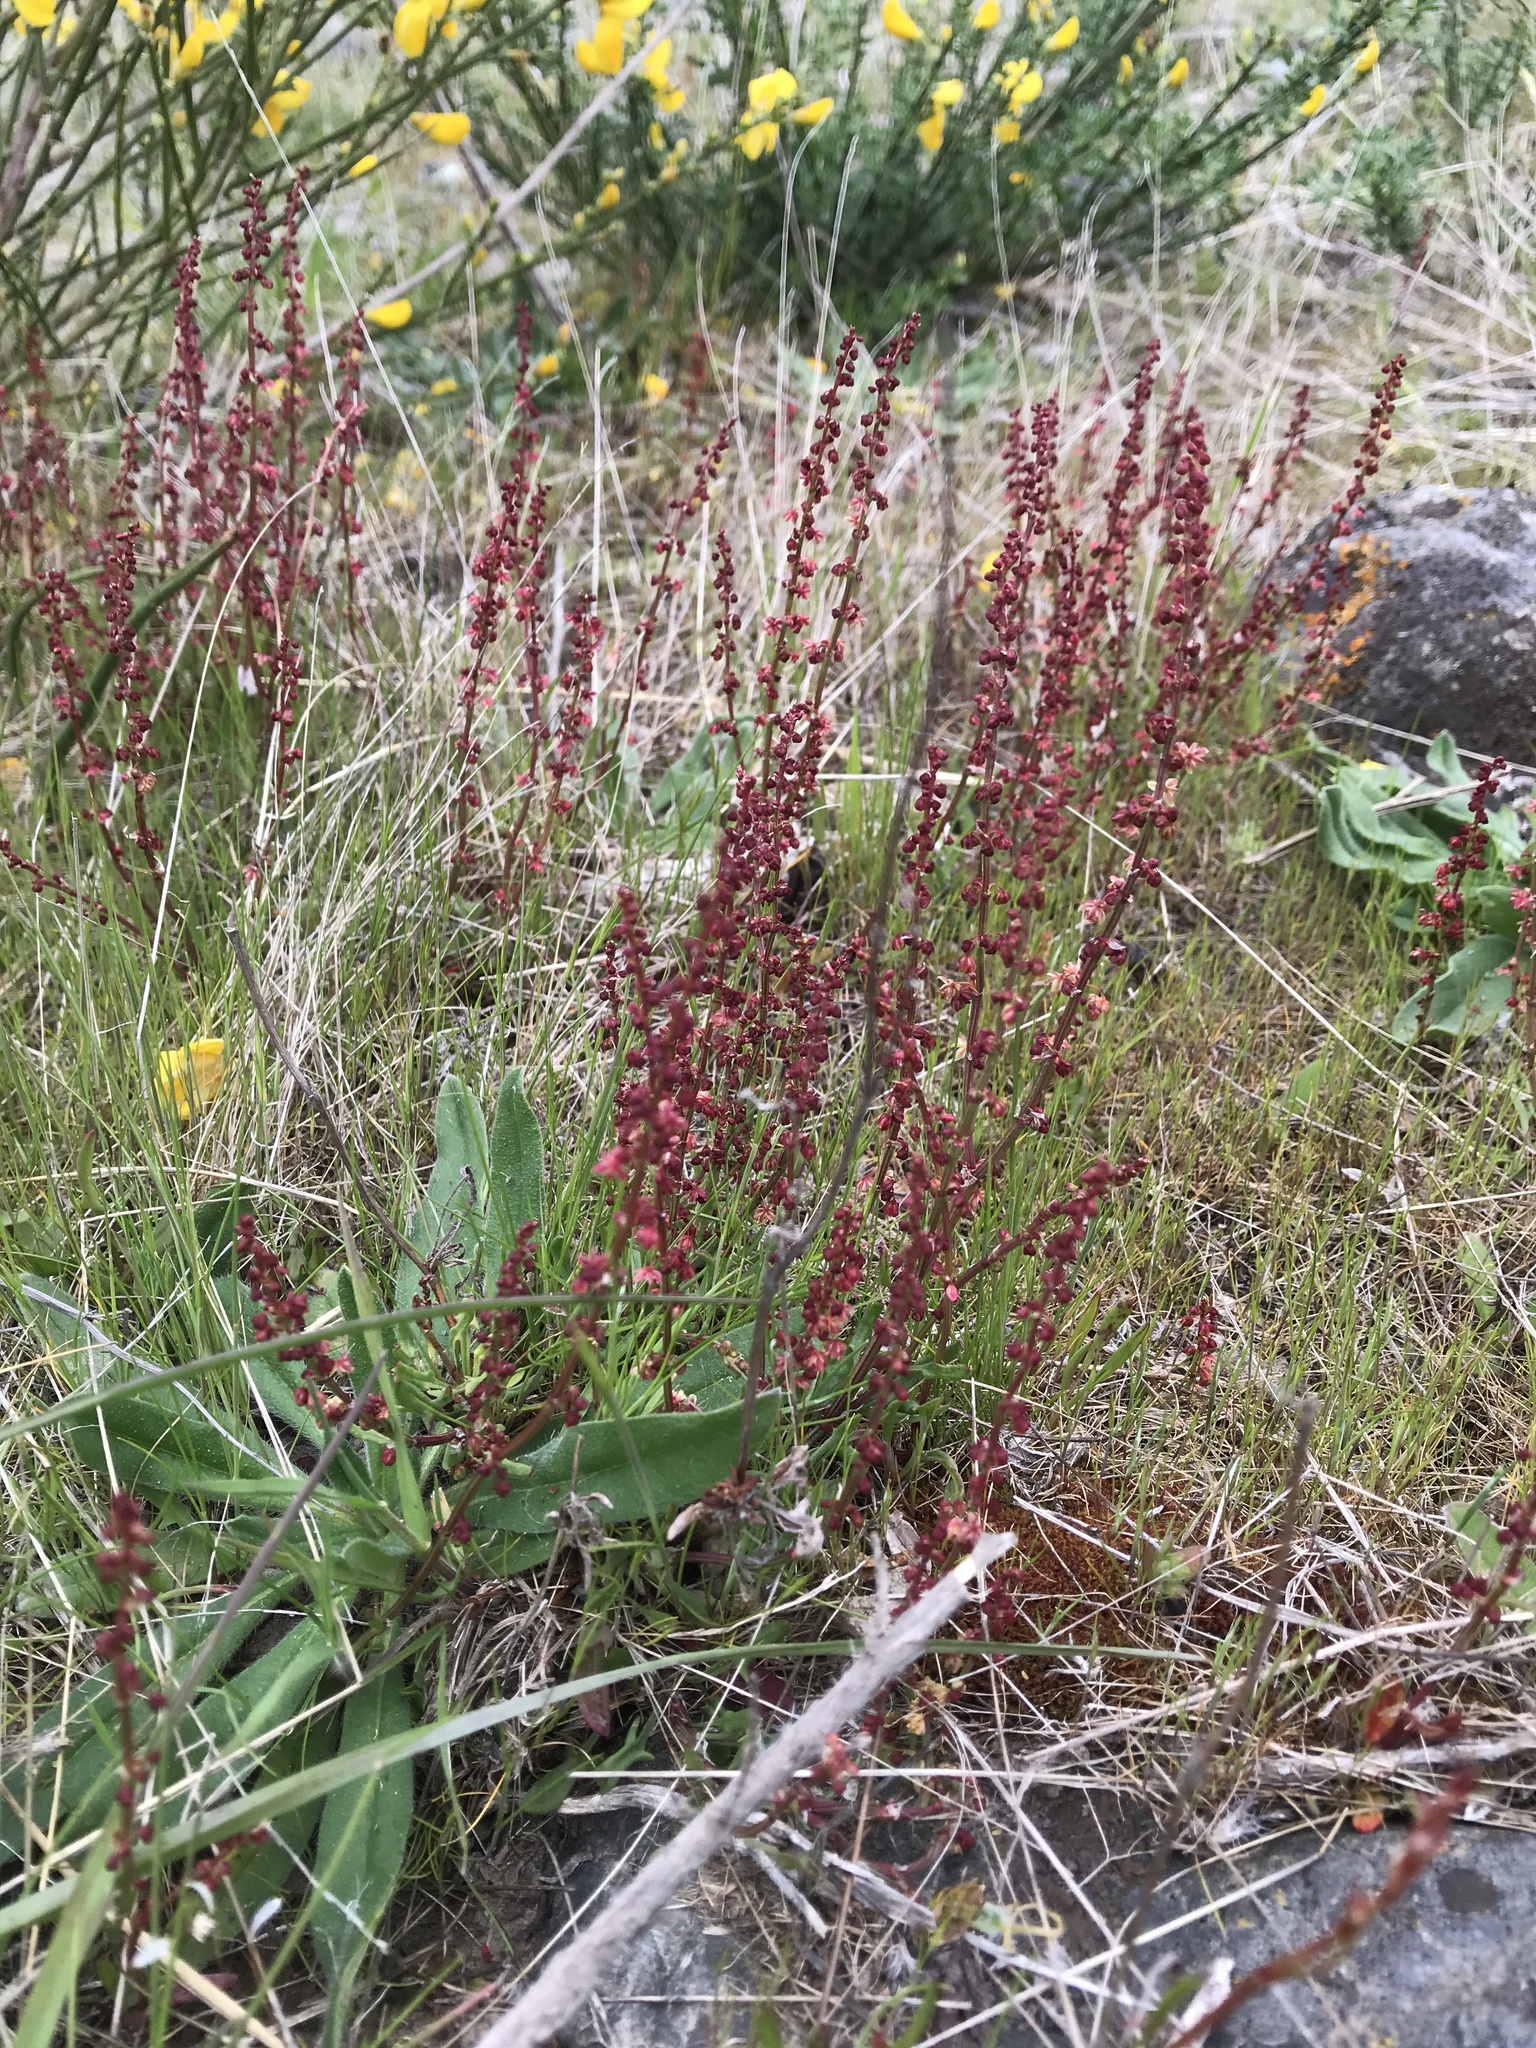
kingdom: Plantae
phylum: Tracheophyta
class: Magnoliopsida
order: Caryophyllales
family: Polygonaceae
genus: Rumex
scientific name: Rumex acetosella
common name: Common sheep sorrel
